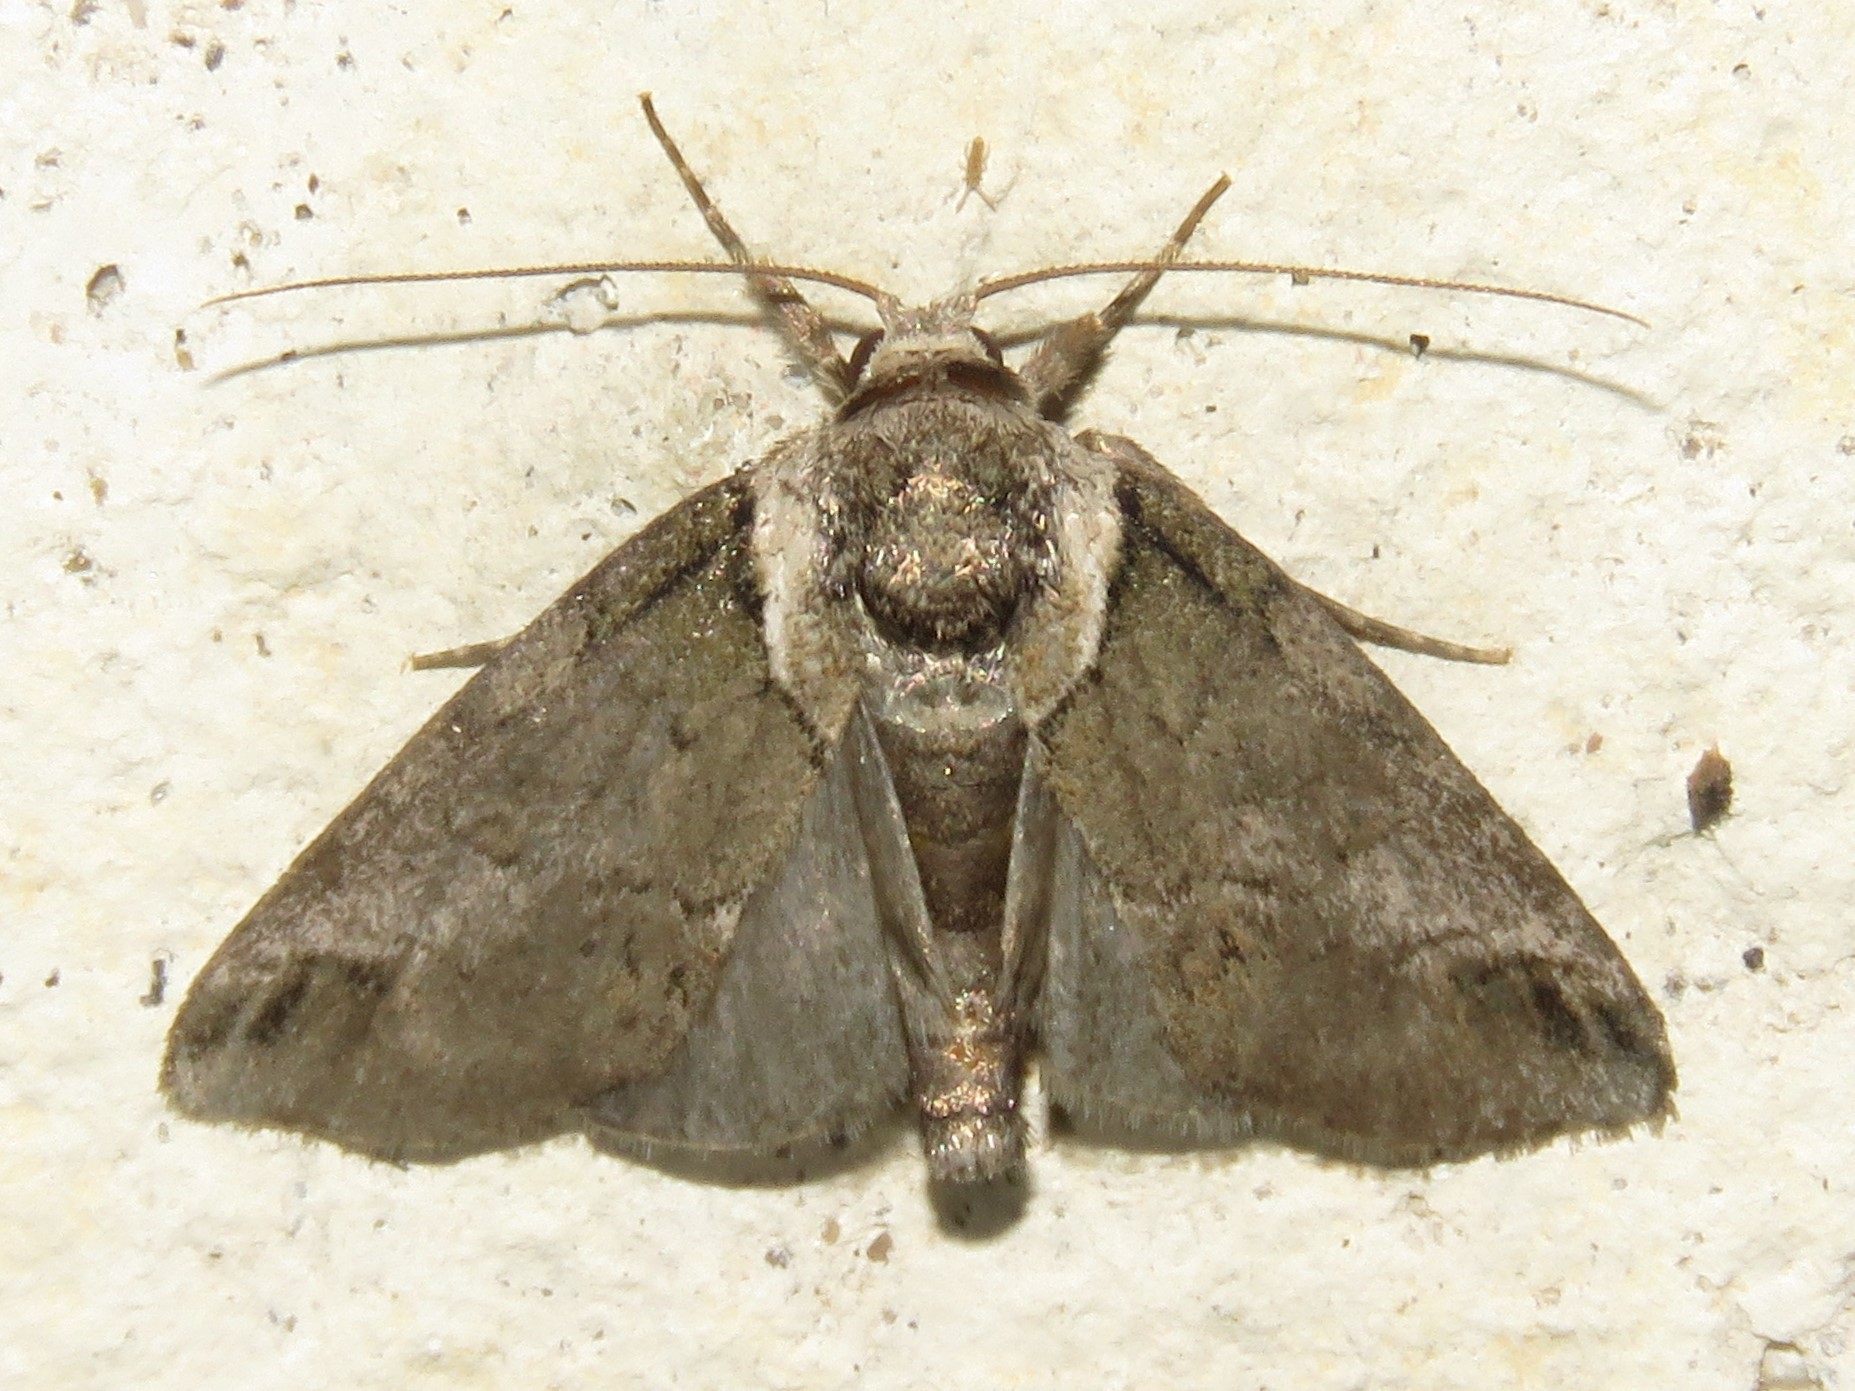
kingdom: Animalia
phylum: Arthropoda
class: Insecta
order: Lepidoptera
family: Nolidae
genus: Baileya
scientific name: Baileya australis
